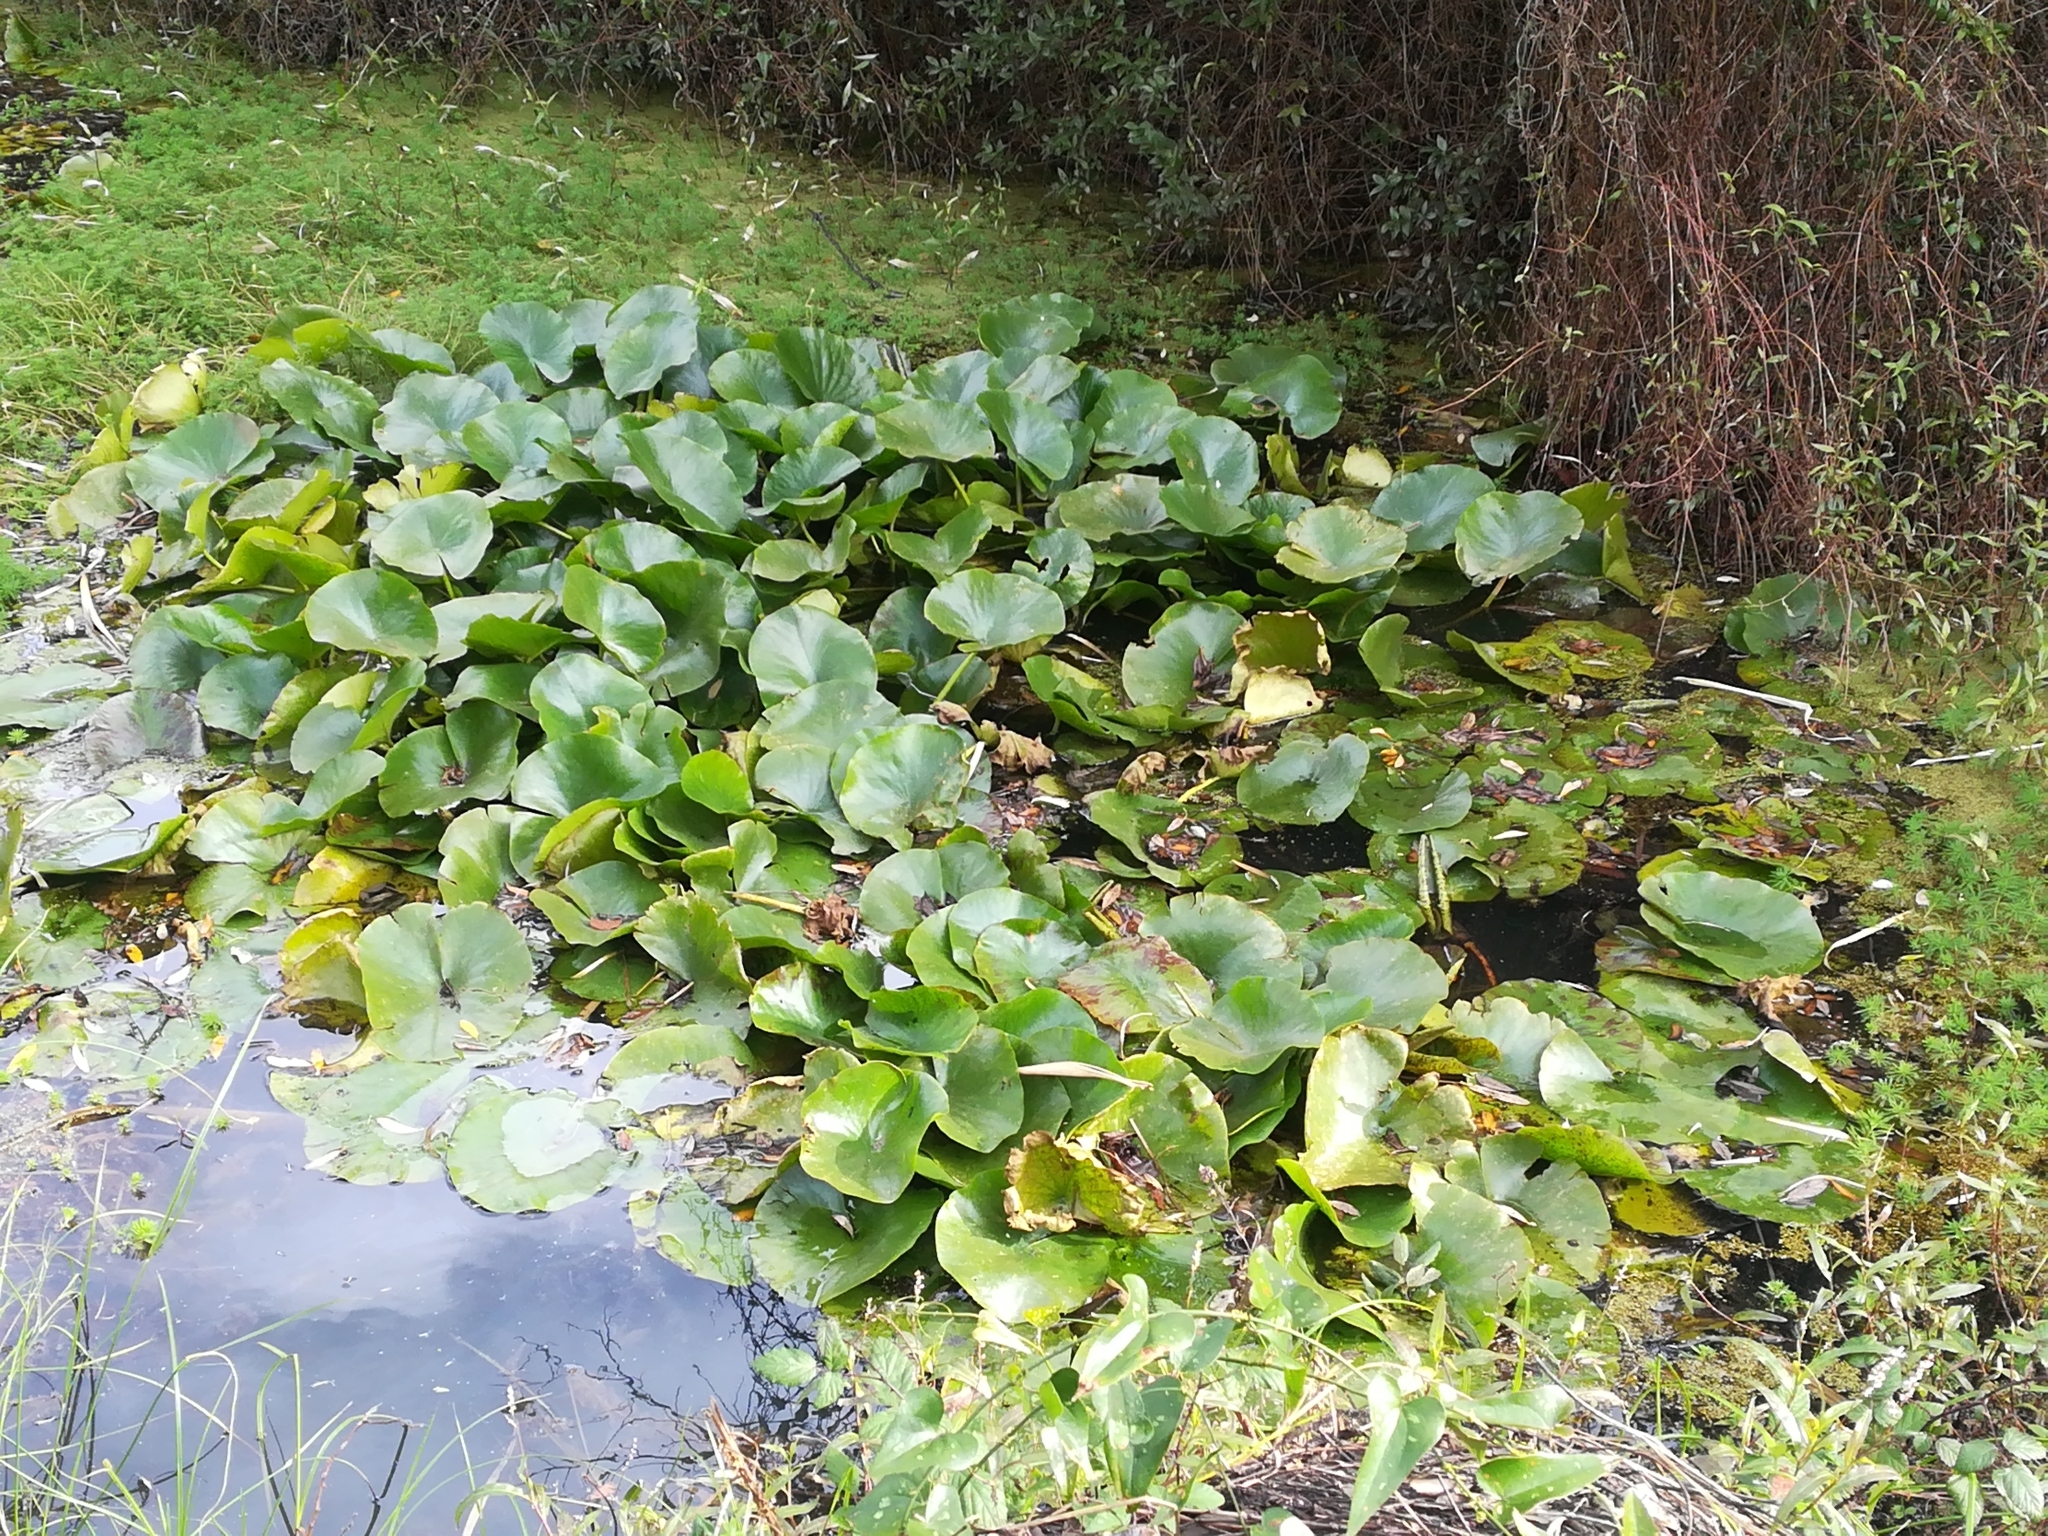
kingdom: Plantae
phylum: Tracheophyta
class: Magnoliopsida
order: Nymphaeales
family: Nymphaeaceae
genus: Nuphar
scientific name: Nuphar lutea
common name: Yellow water-lily
